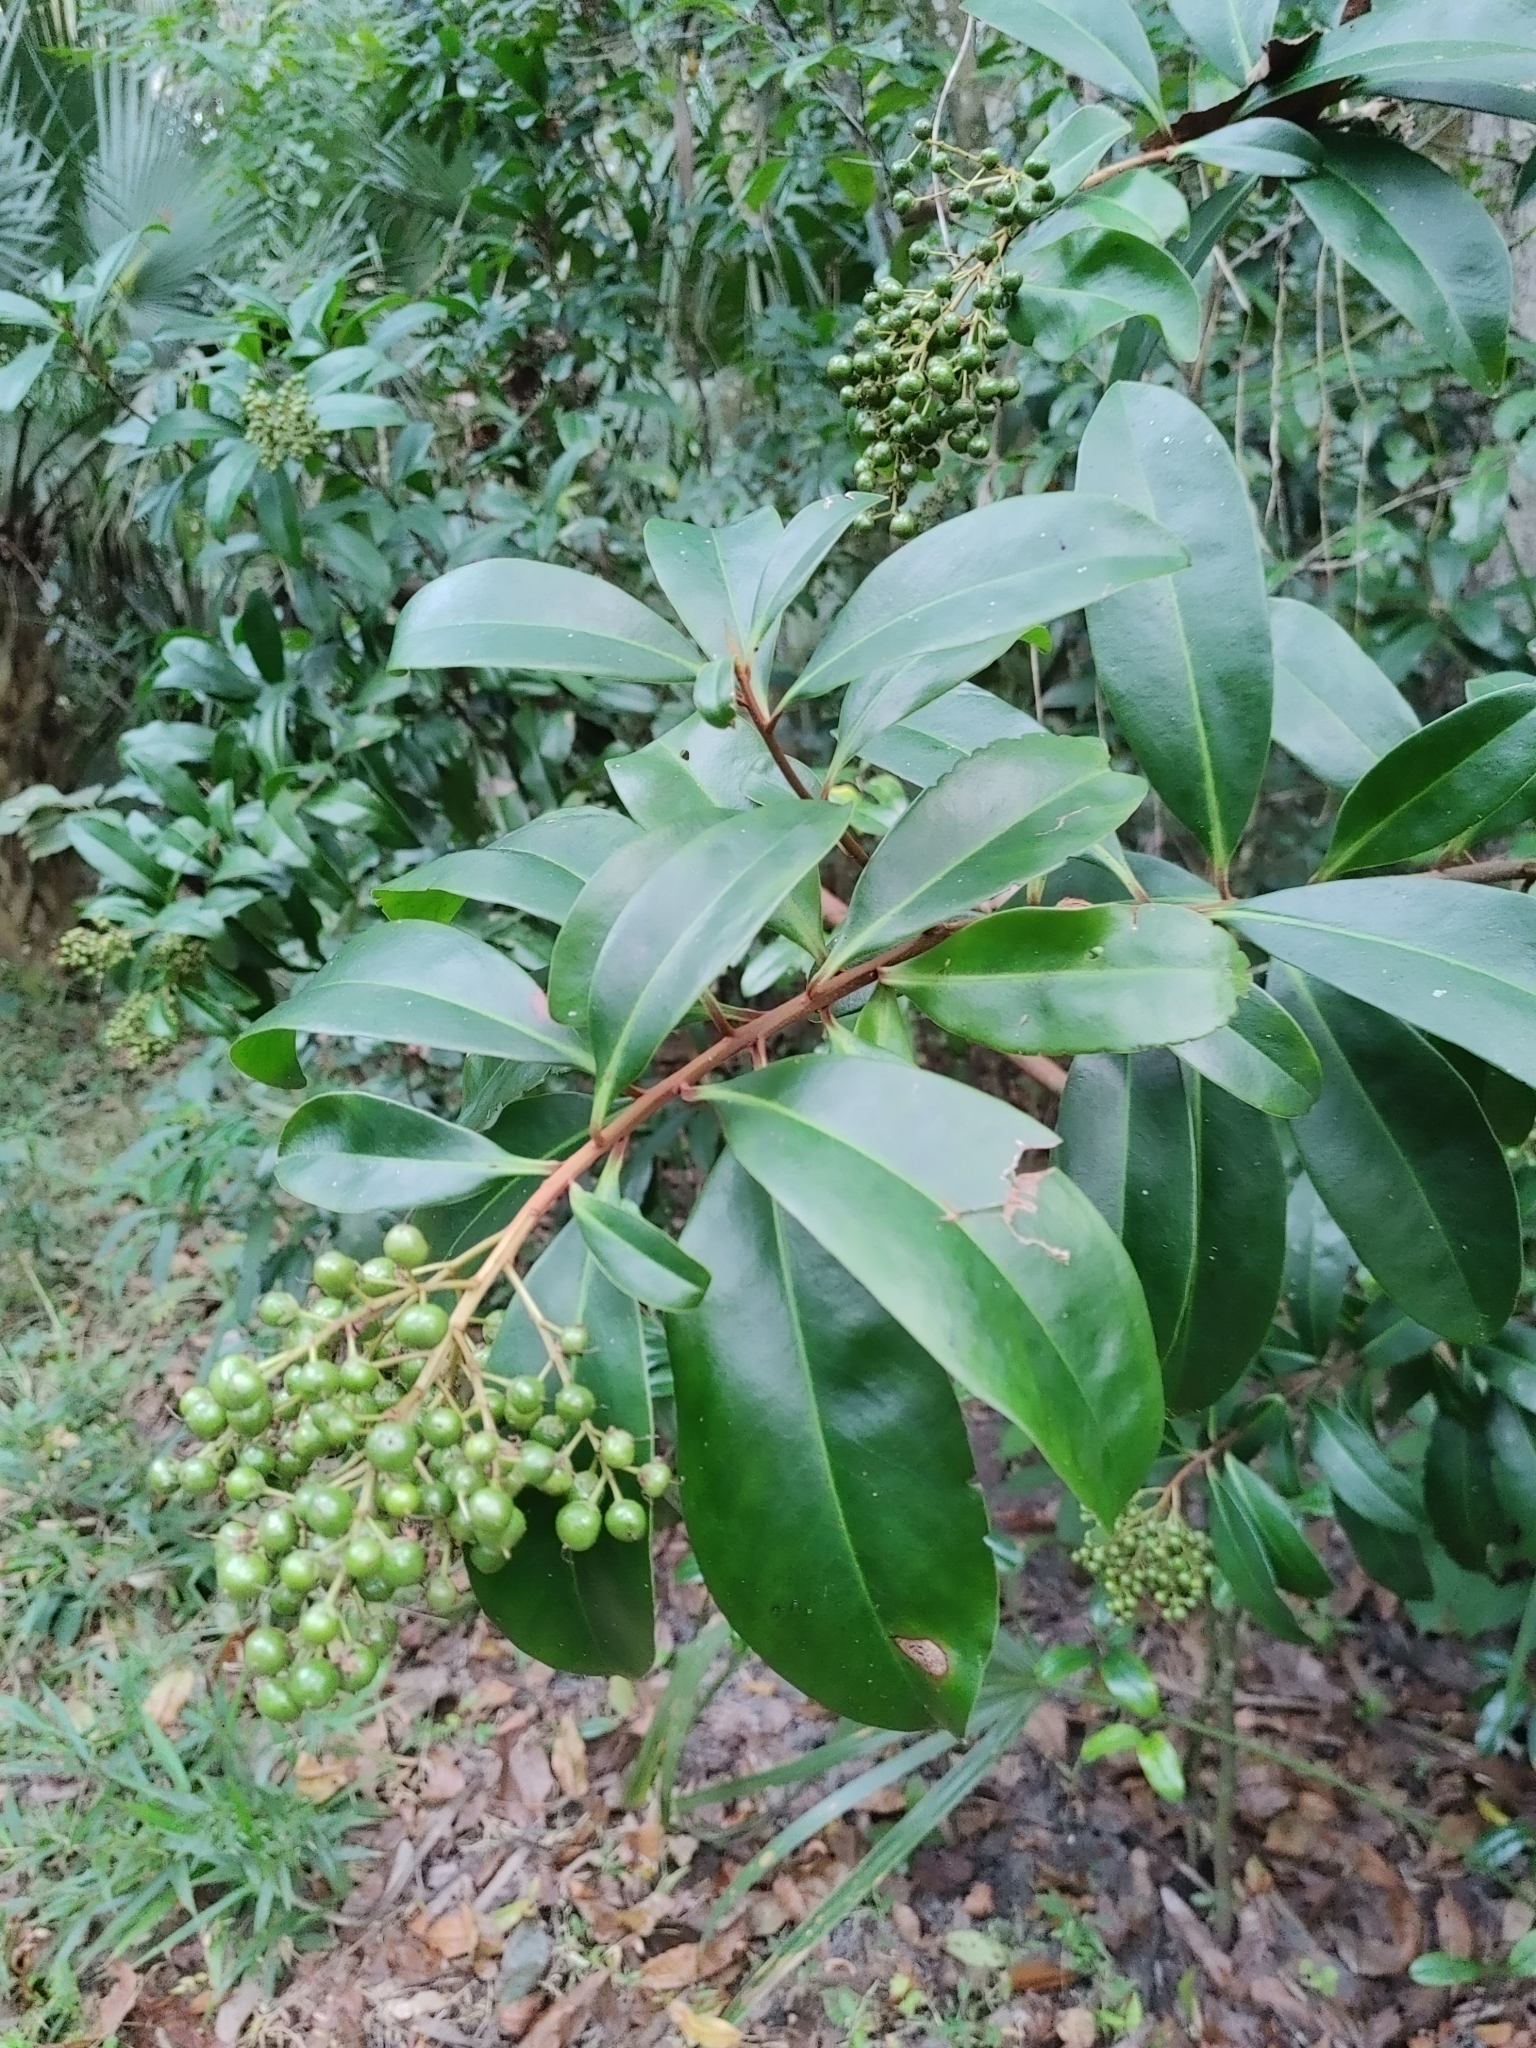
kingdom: Plantae
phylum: Tracheophyta
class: Magnoliopsida
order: Ericales
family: Primulaceae
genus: Ardisia
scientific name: Ardisia escallonioides
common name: Island marlberry
